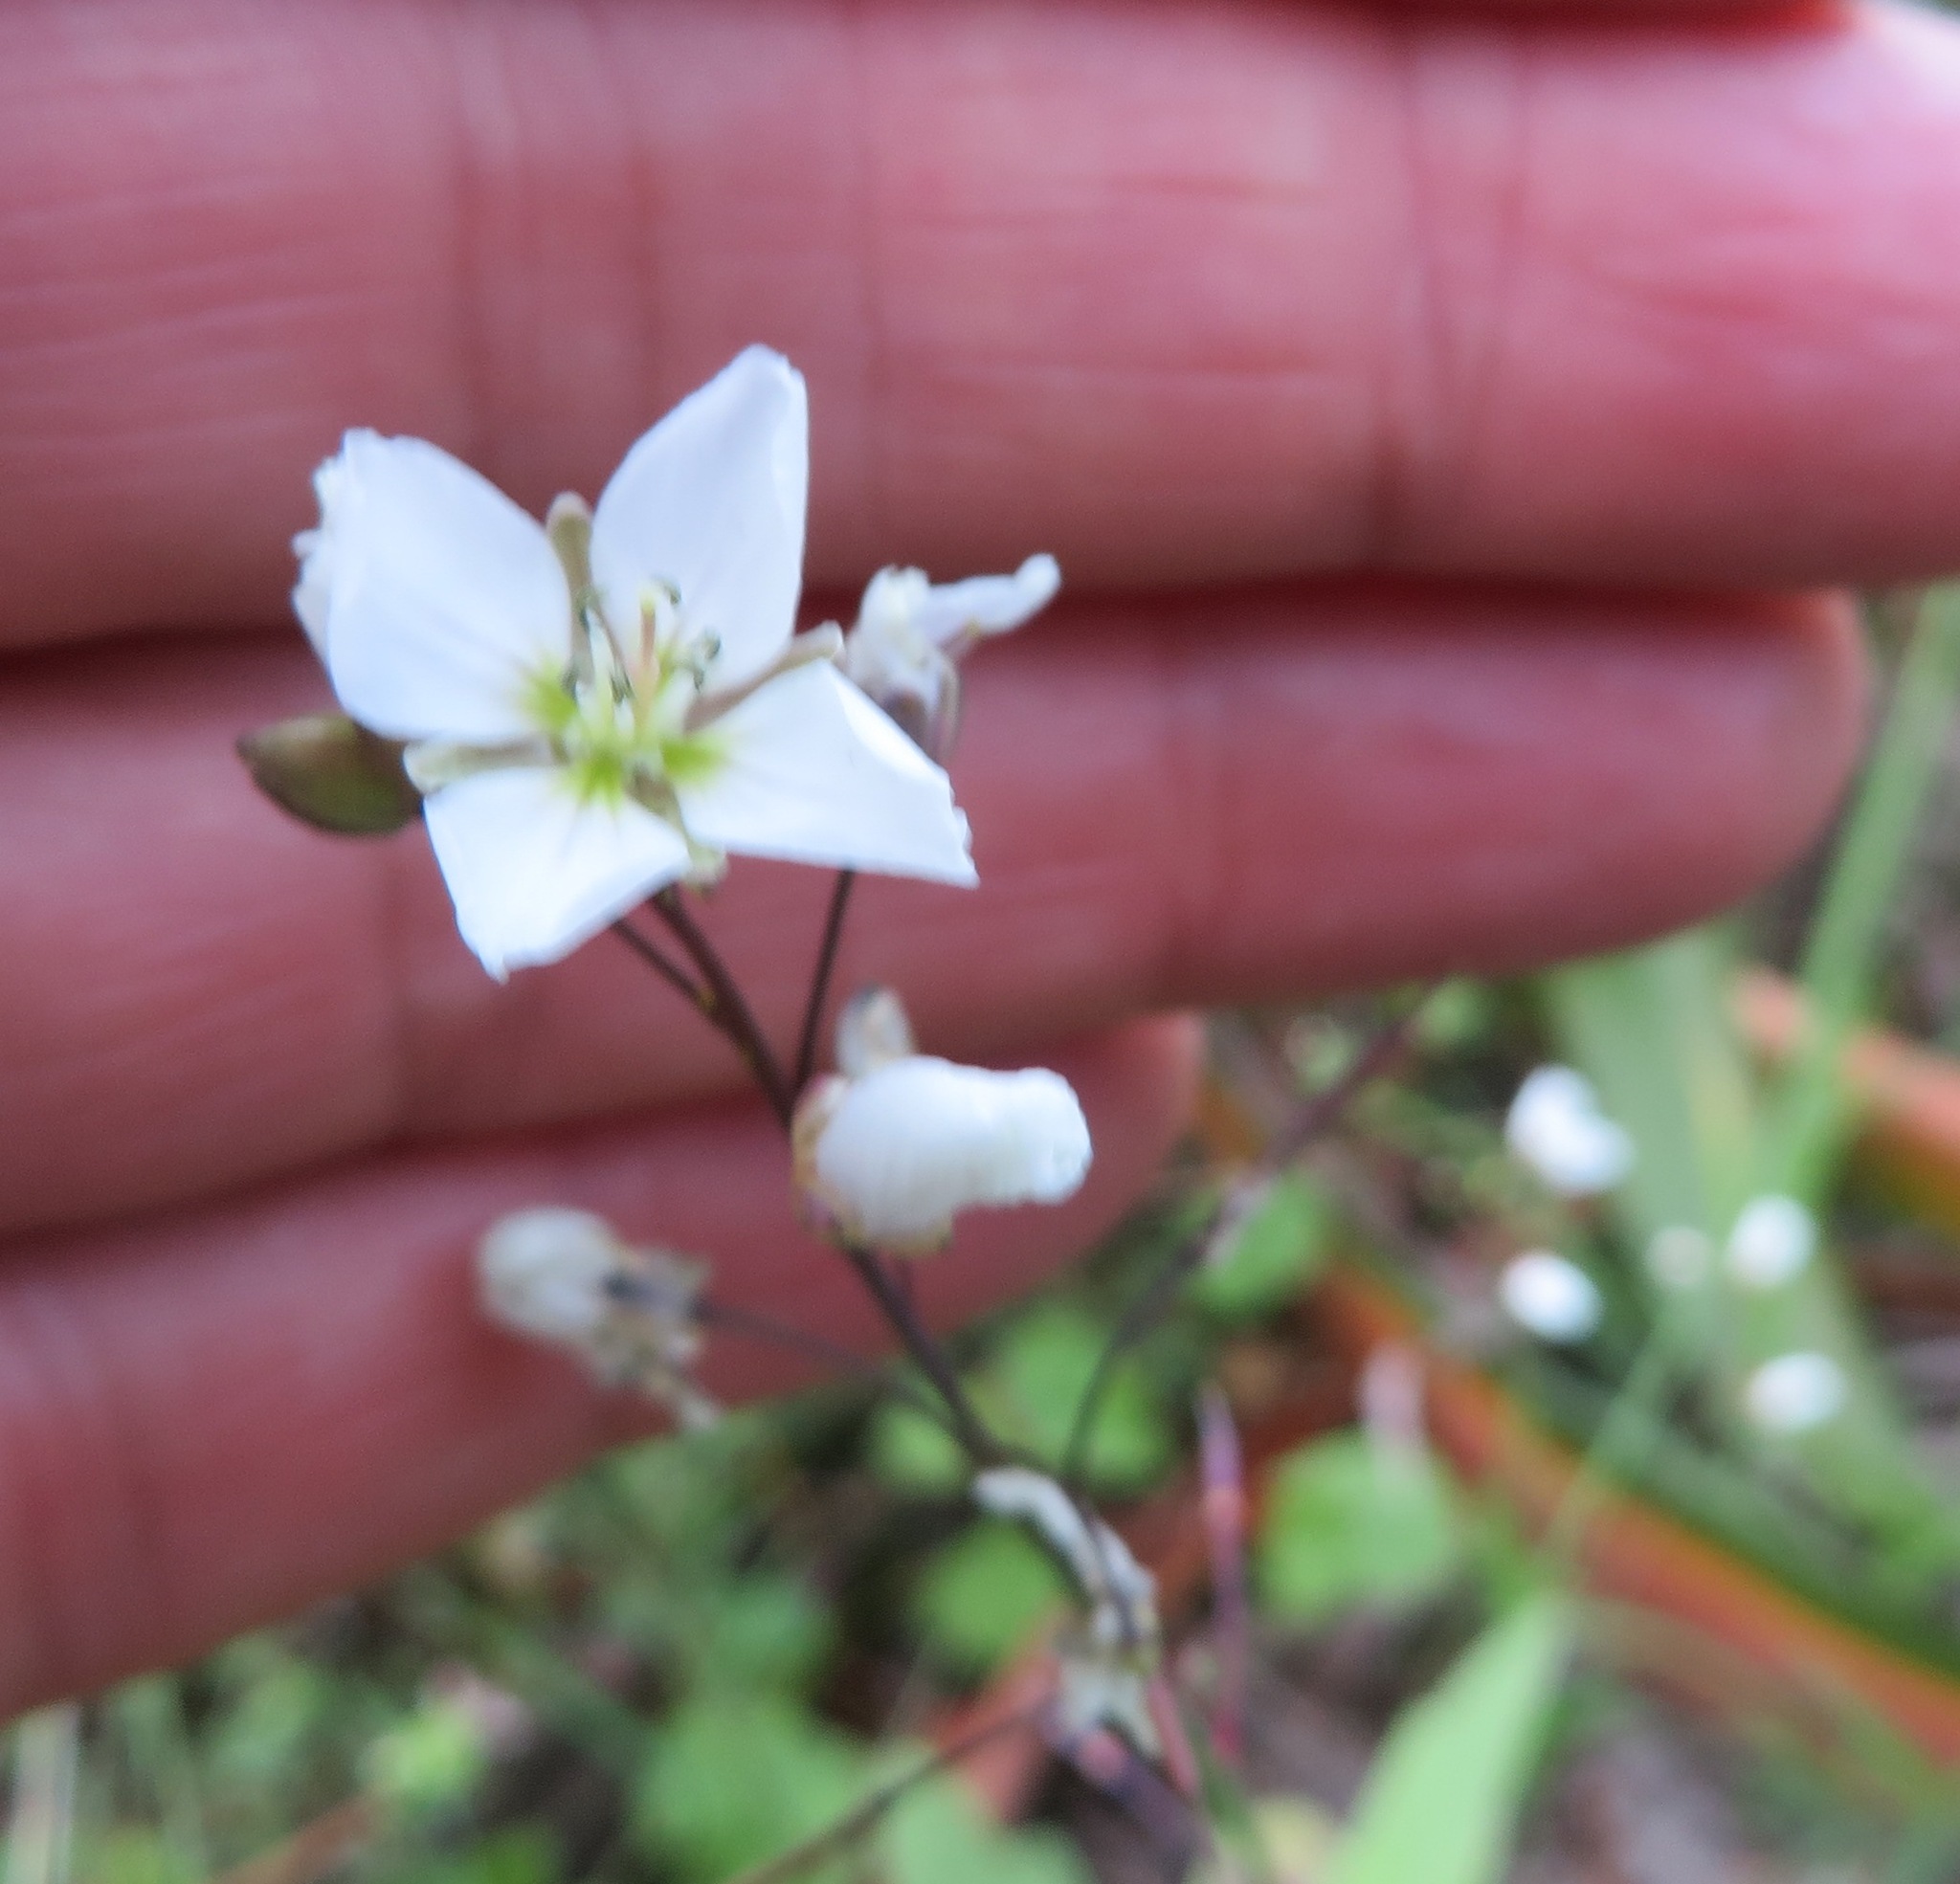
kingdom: Plantae
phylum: Tracheophyta
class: Magnoliopsida
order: Brassicales
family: Brassicaceae
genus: Heliophila
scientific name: Heliophila meyeri
